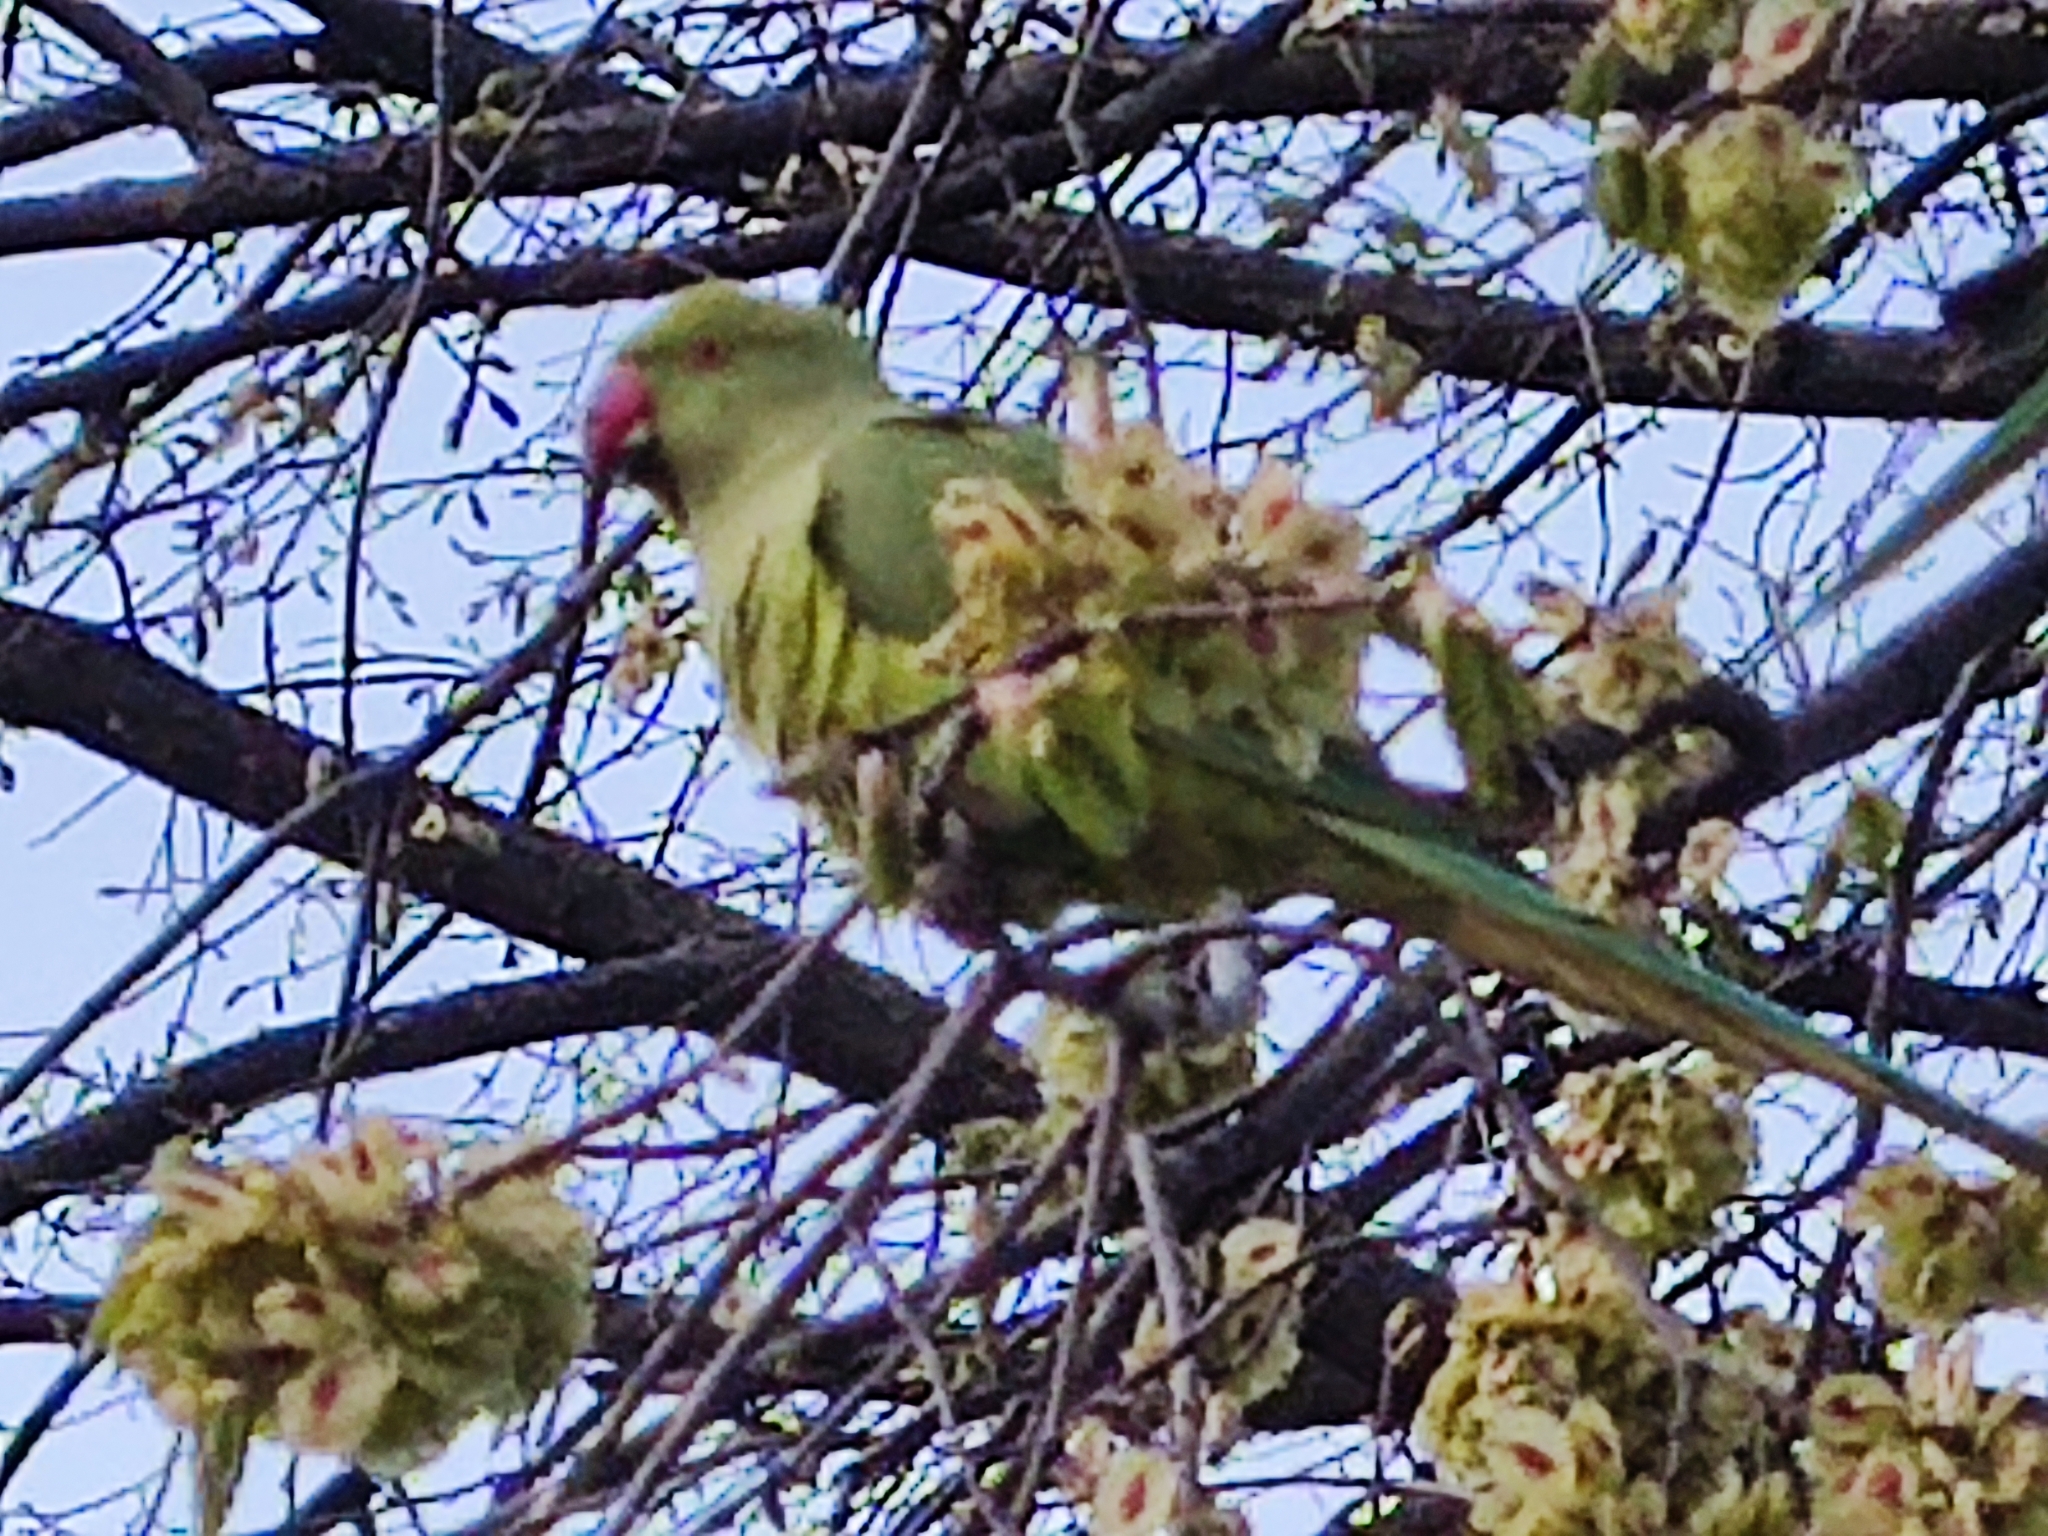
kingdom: Animalia
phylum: Chordata
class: Aves
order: Psittaciformes
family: Psittacidae
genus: Psittacula
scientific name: Psittacula krameri
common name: Rose-ringed parakeet
